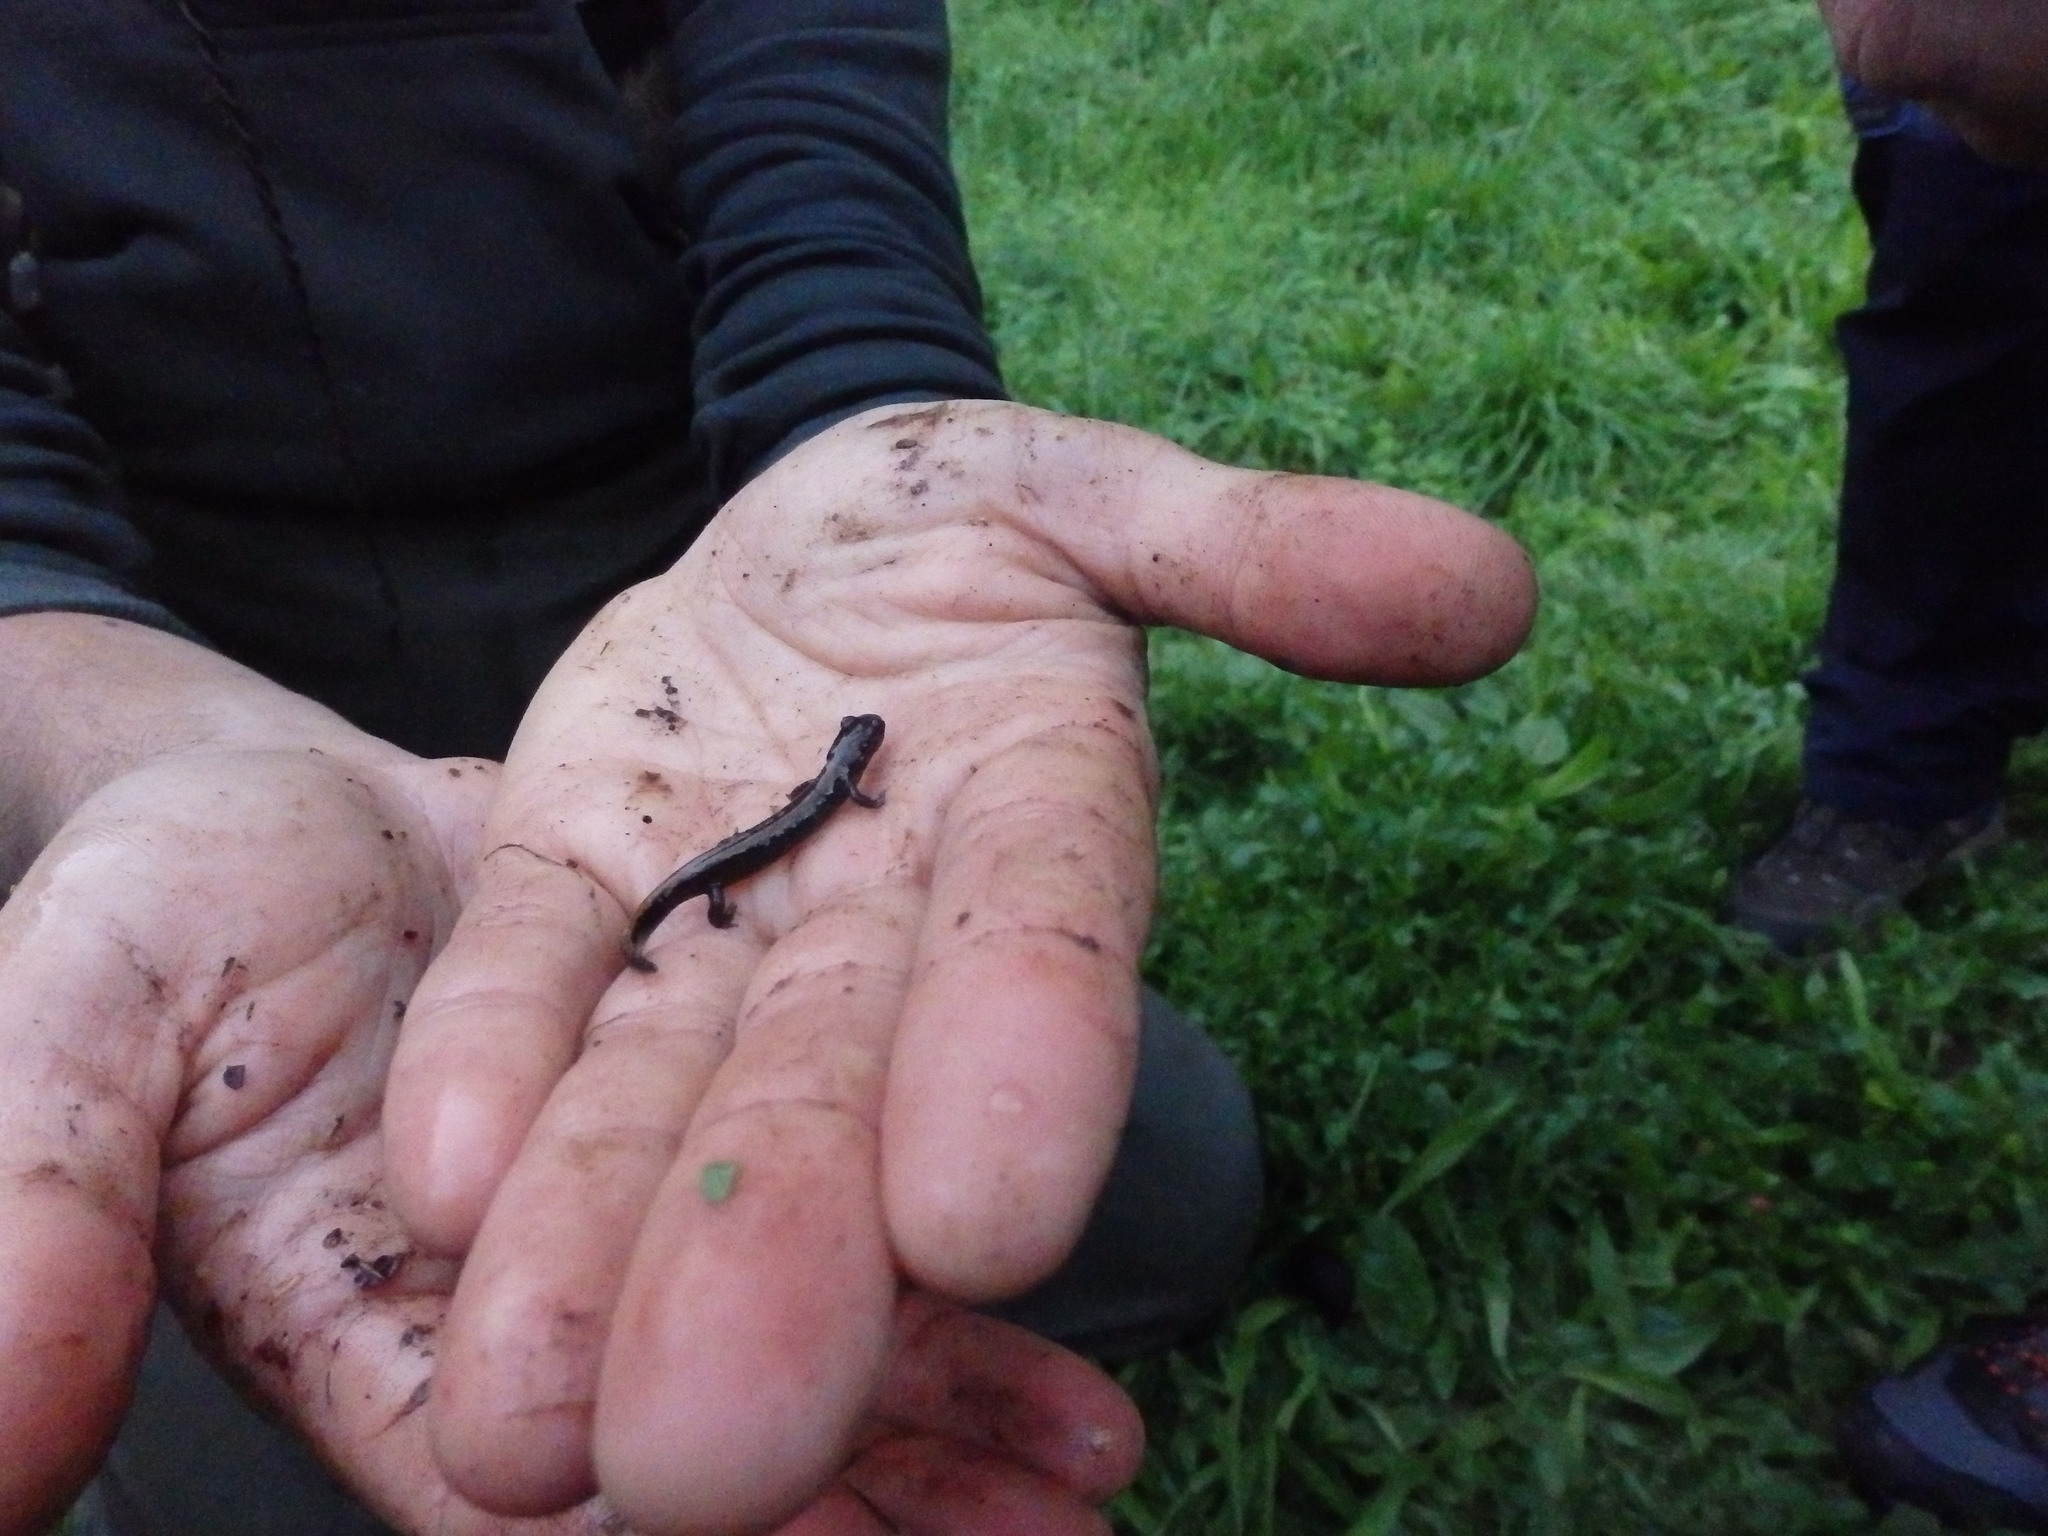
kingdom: Animalia
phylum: Chordata
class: Amphibia
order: Caudata
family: Salamandridae
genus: Chioglossa
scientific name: Chioglossa lusitanica
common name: Gold-striped salamander
